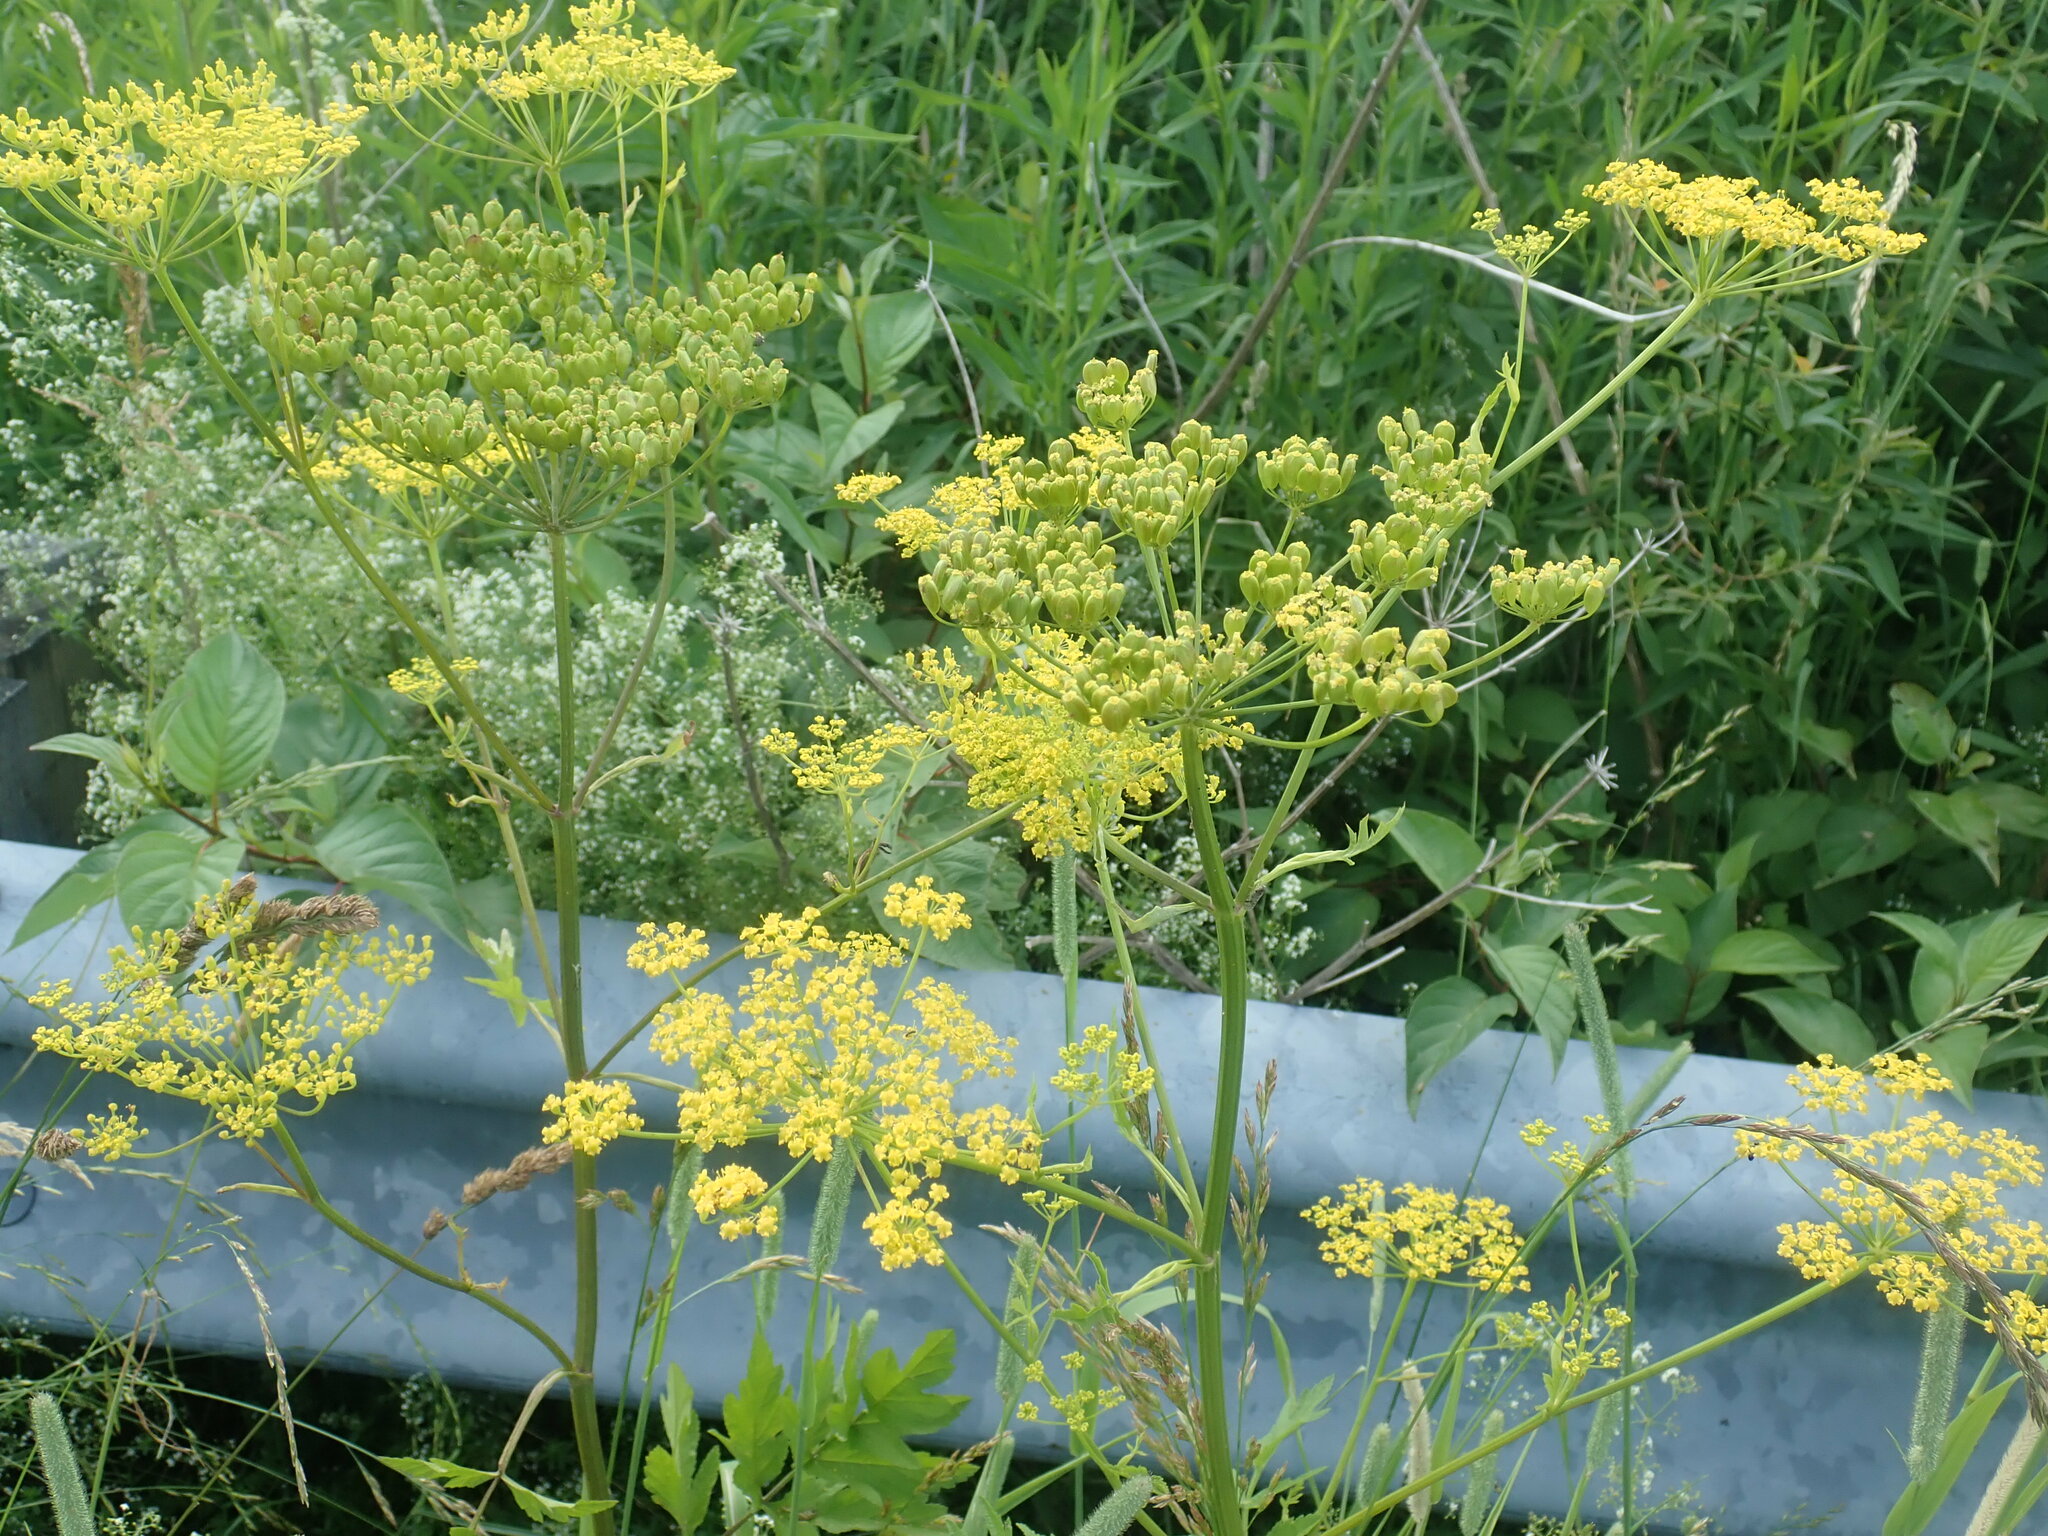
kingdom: Plantae
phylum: Tracheophyta
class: Magnoliopsida
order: Apiales
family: Apiaceae
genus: Pastinaca
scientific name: Pastinaca sativa
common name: Wild parsnip
